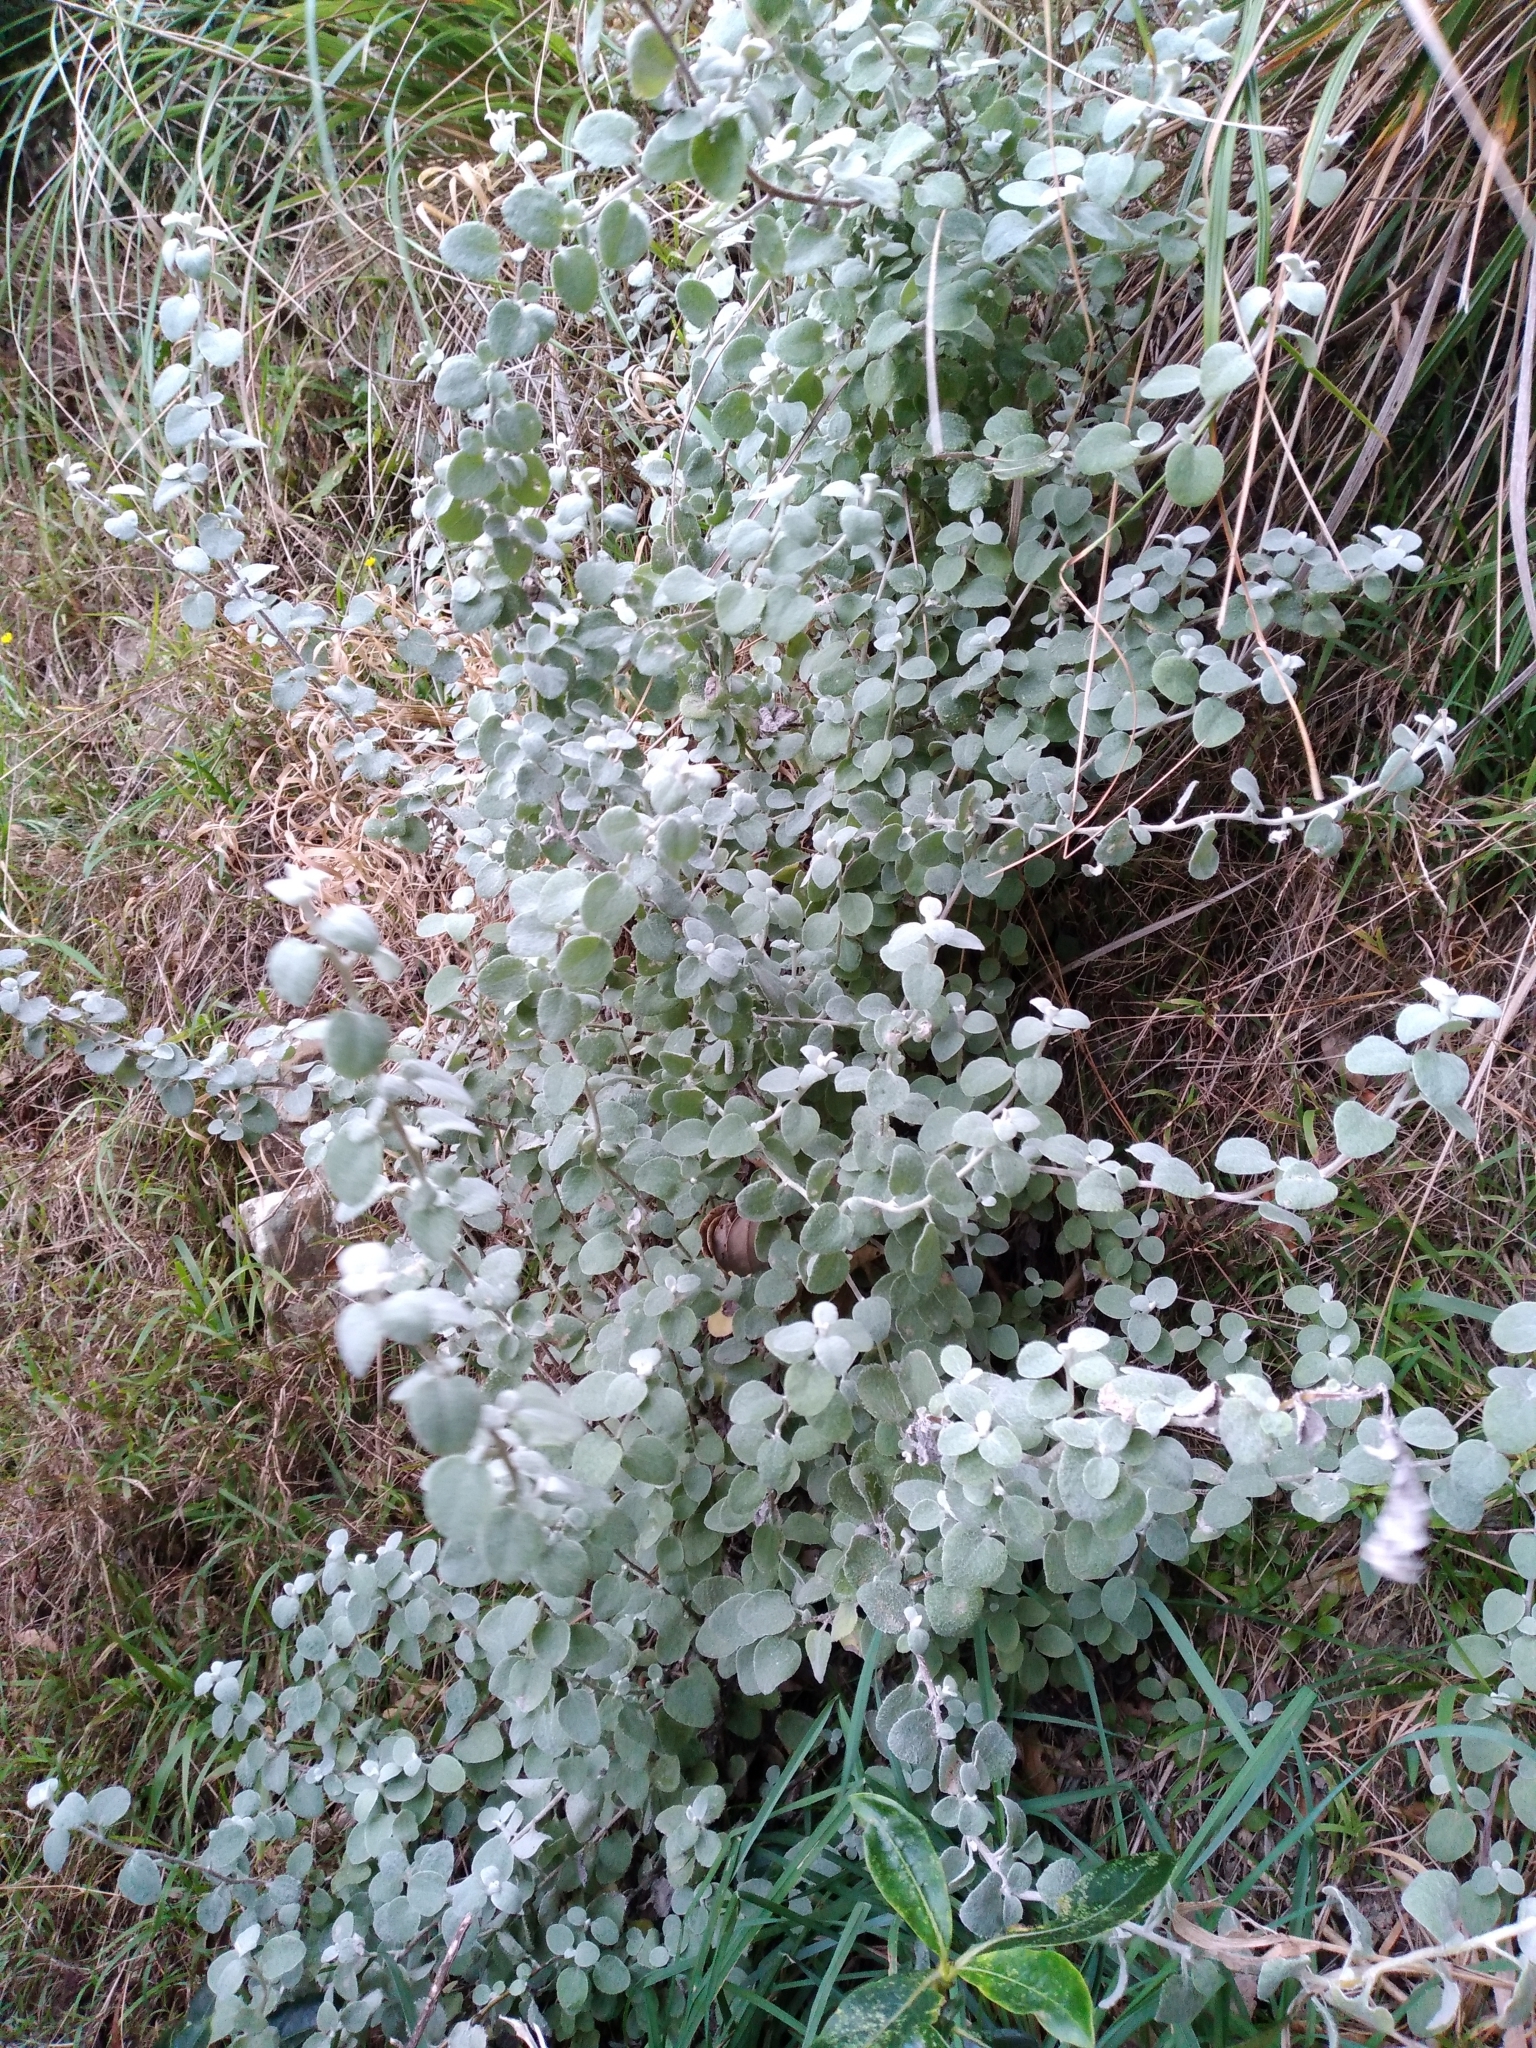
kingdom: Plantae
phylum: Tracheophyta
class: Magnoliopsida
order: Asterales
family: Asteraceae
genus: Helichrysum
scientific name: Helichrysum petiolare
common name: Licorice-plant
